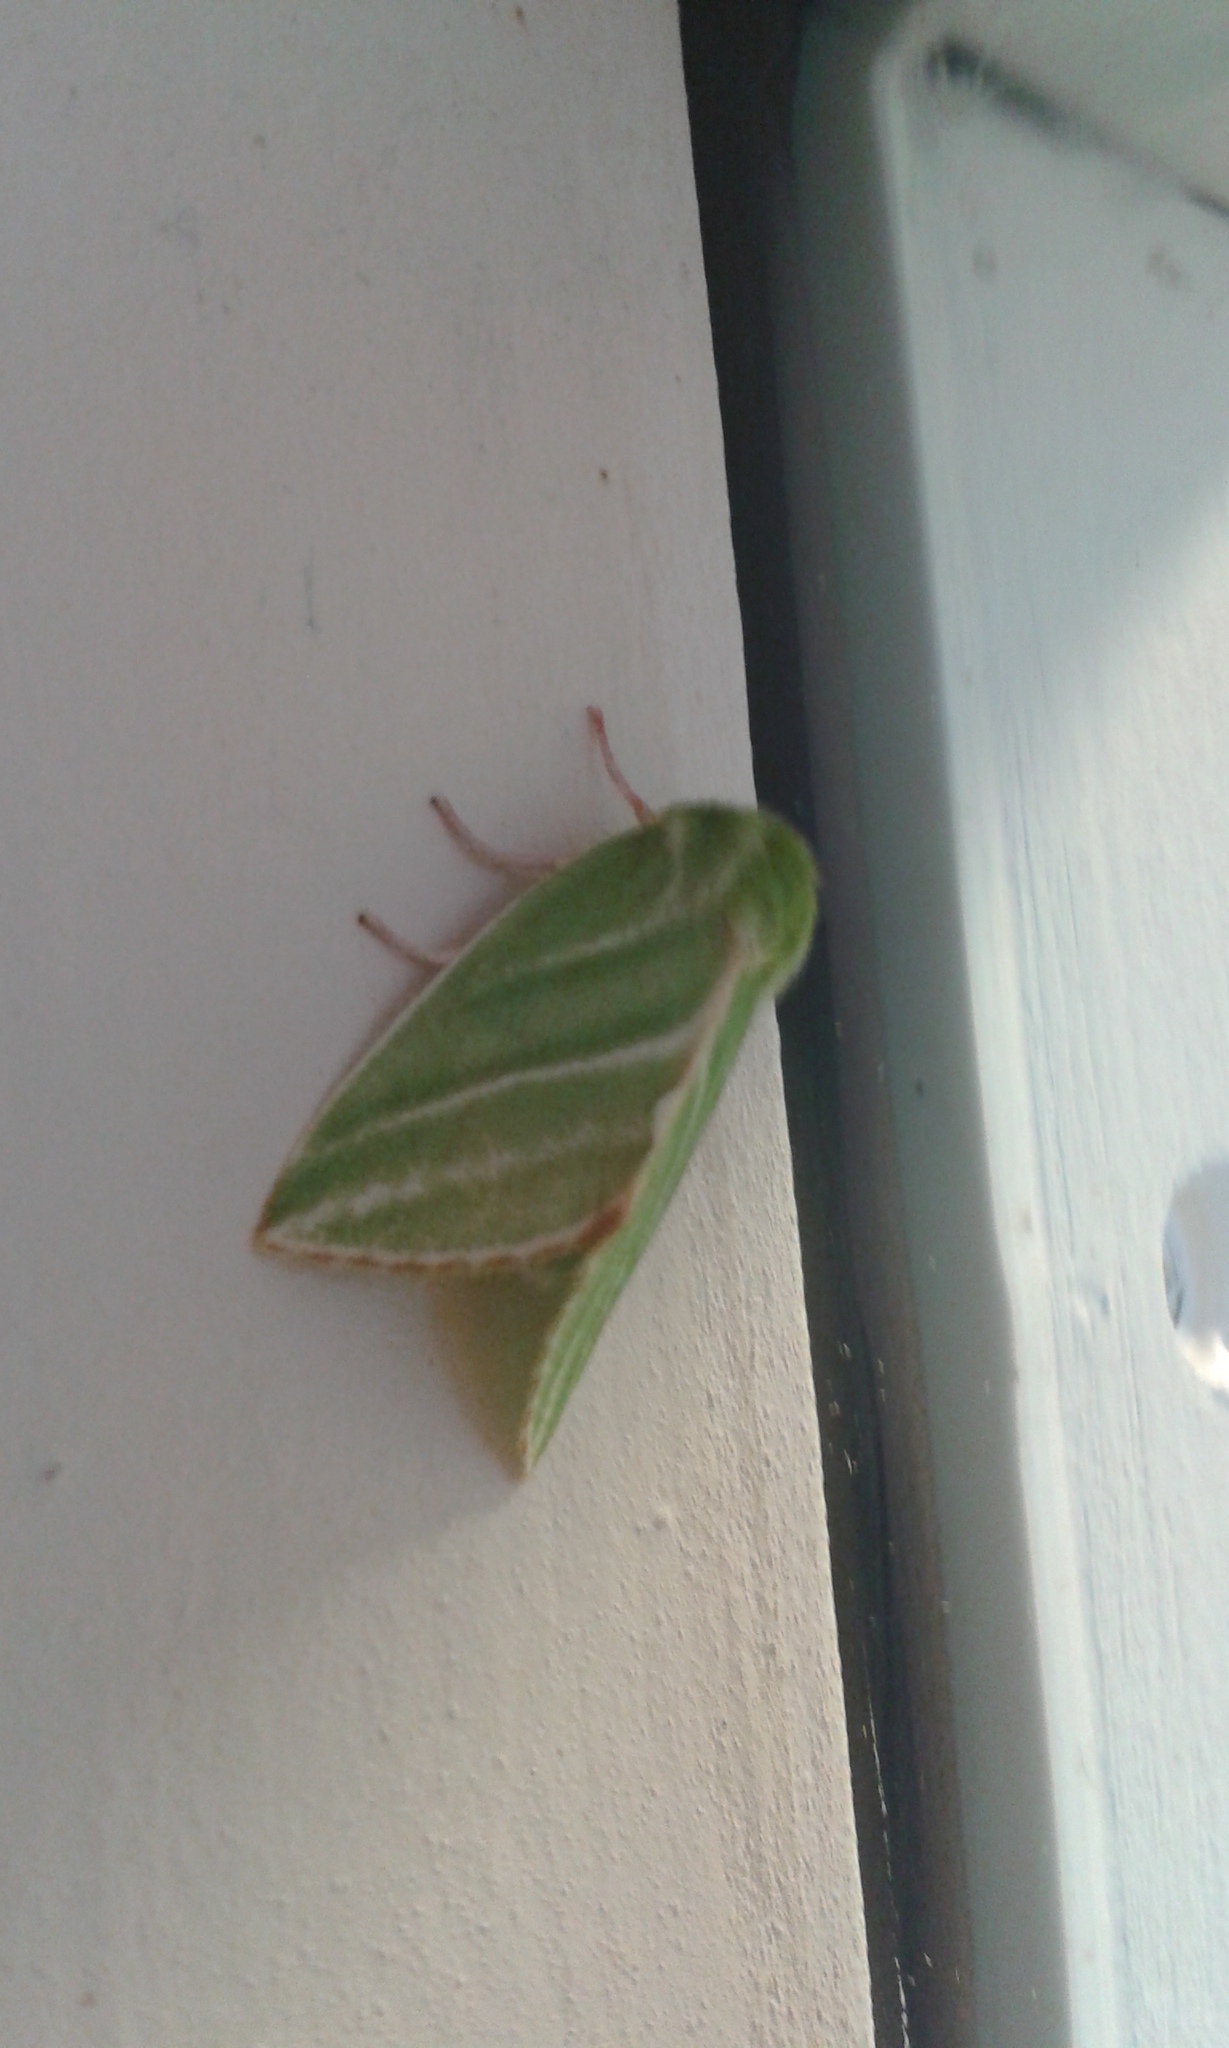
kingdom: Animalia
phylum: Arthropoda
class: Insecta
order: Lepidoptera
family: Nolidae
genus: Pseudoips
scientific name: Pseudoips prasinana
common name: Green silver-lines
